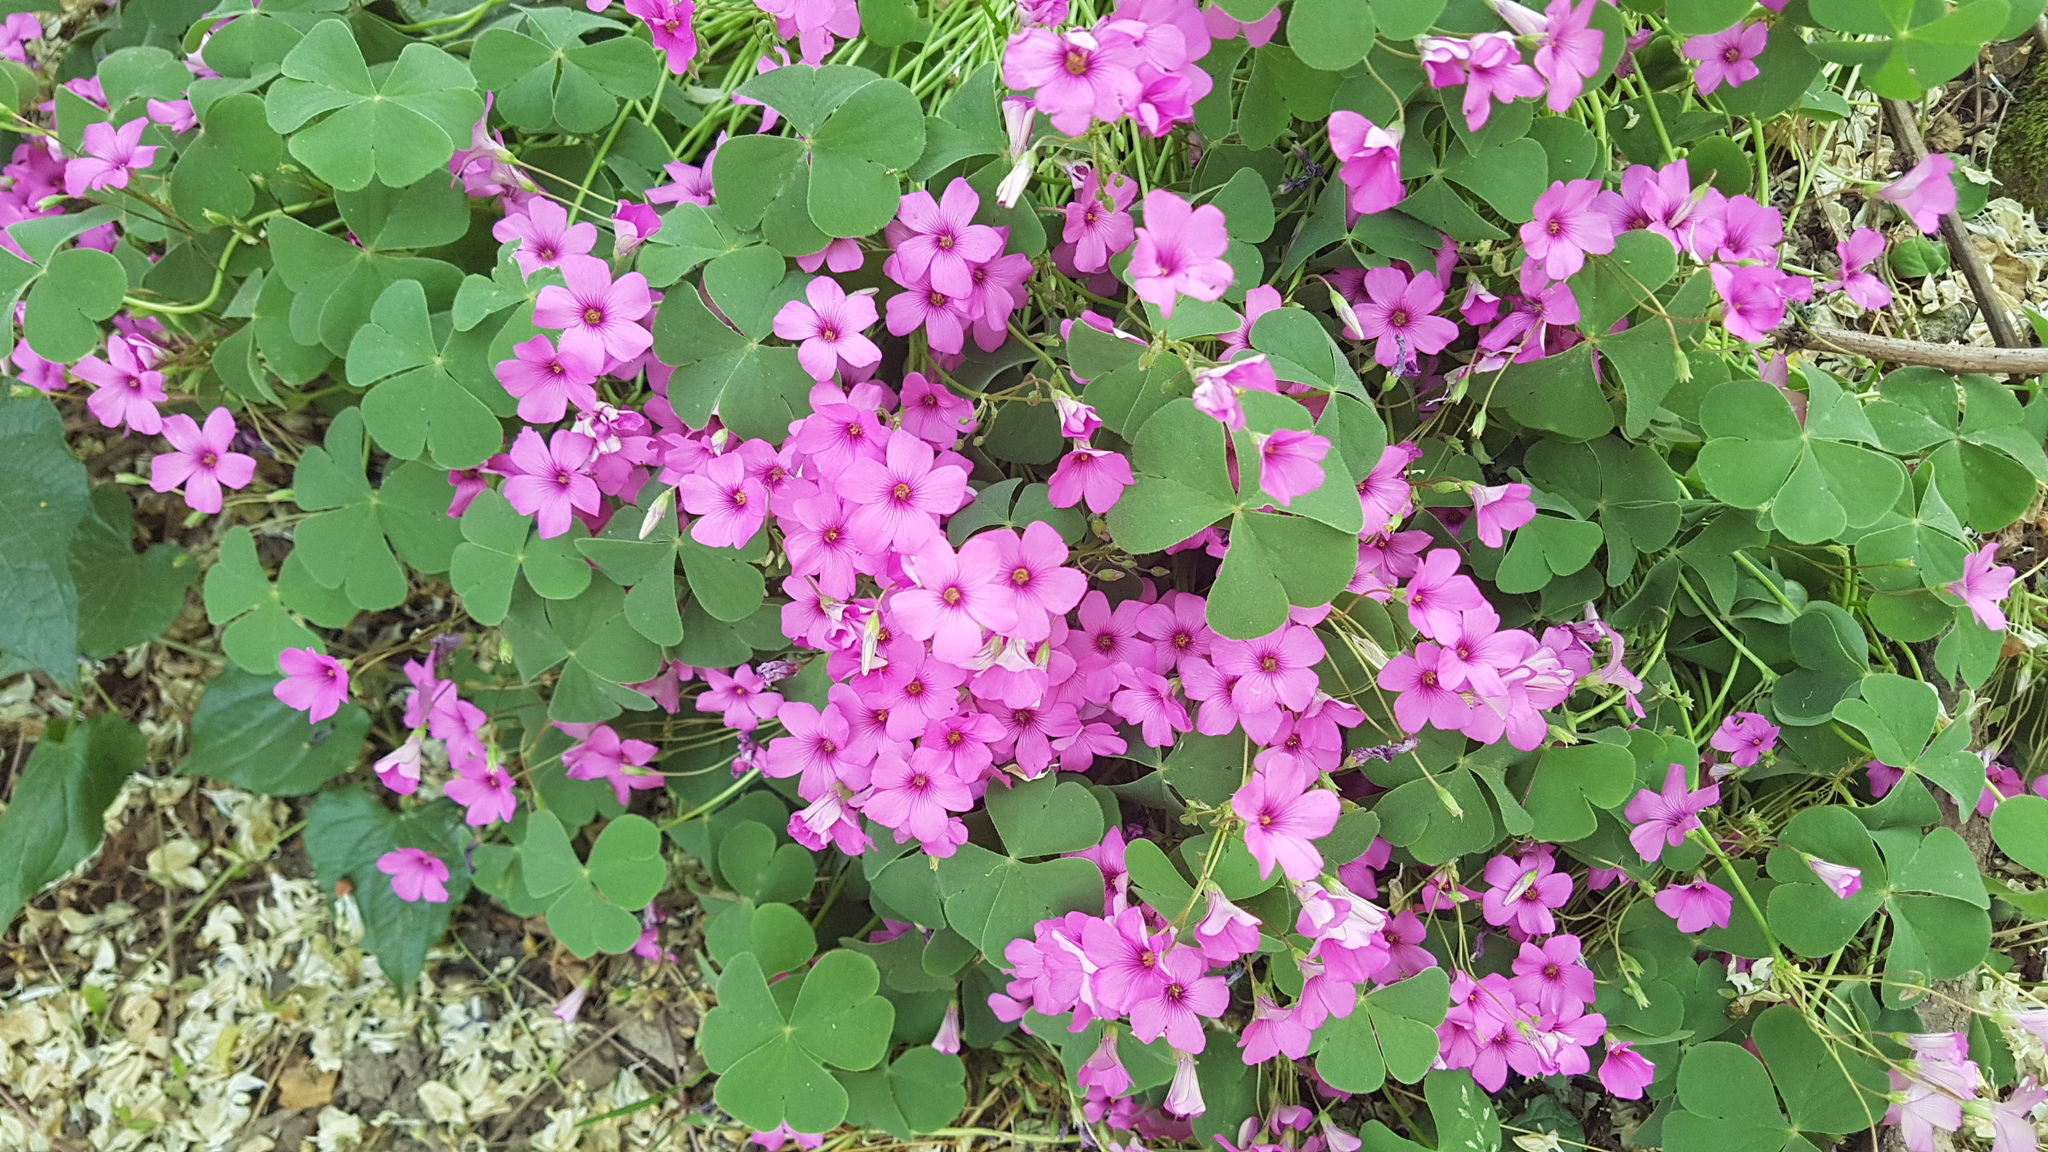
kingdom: Plantae
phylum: Tracheophyta
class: Magnoliopsida
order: Oxalidales
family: Oxalidaceae
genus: Oxalis
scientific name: Oxalis articulata
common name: Pink-sorrel
